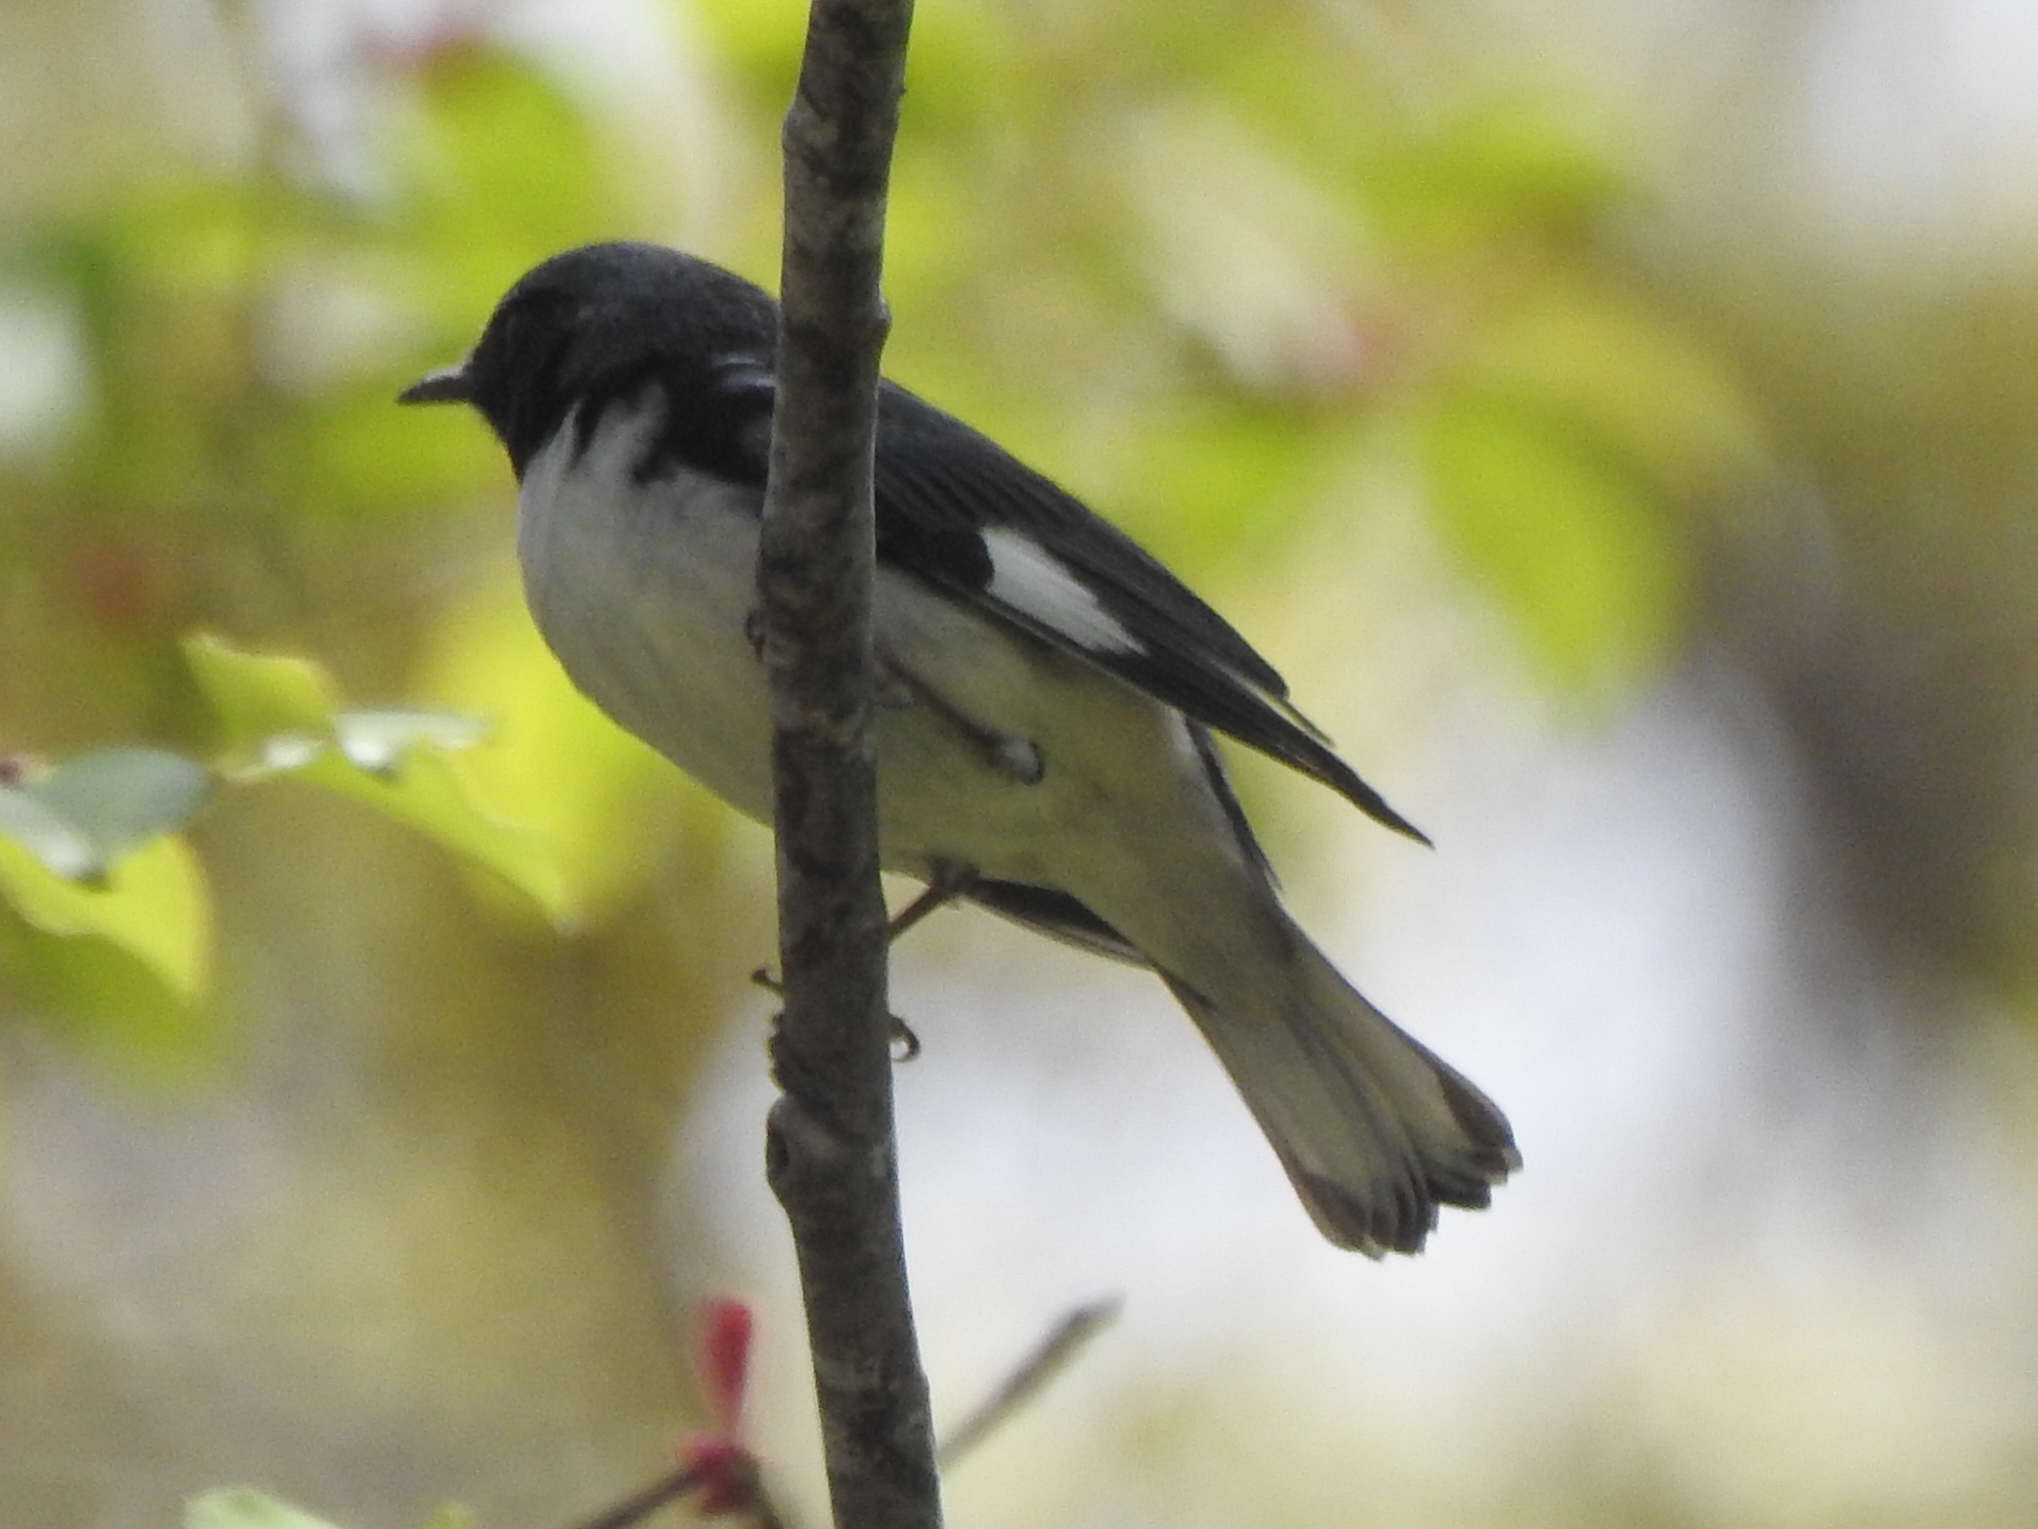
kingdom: Animalia
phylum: Chordata
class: Aves
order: Passeriformes
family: Parulidae
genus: Setophaga
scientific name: Setophaga caerulescens
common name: Black-throated blue warbler
